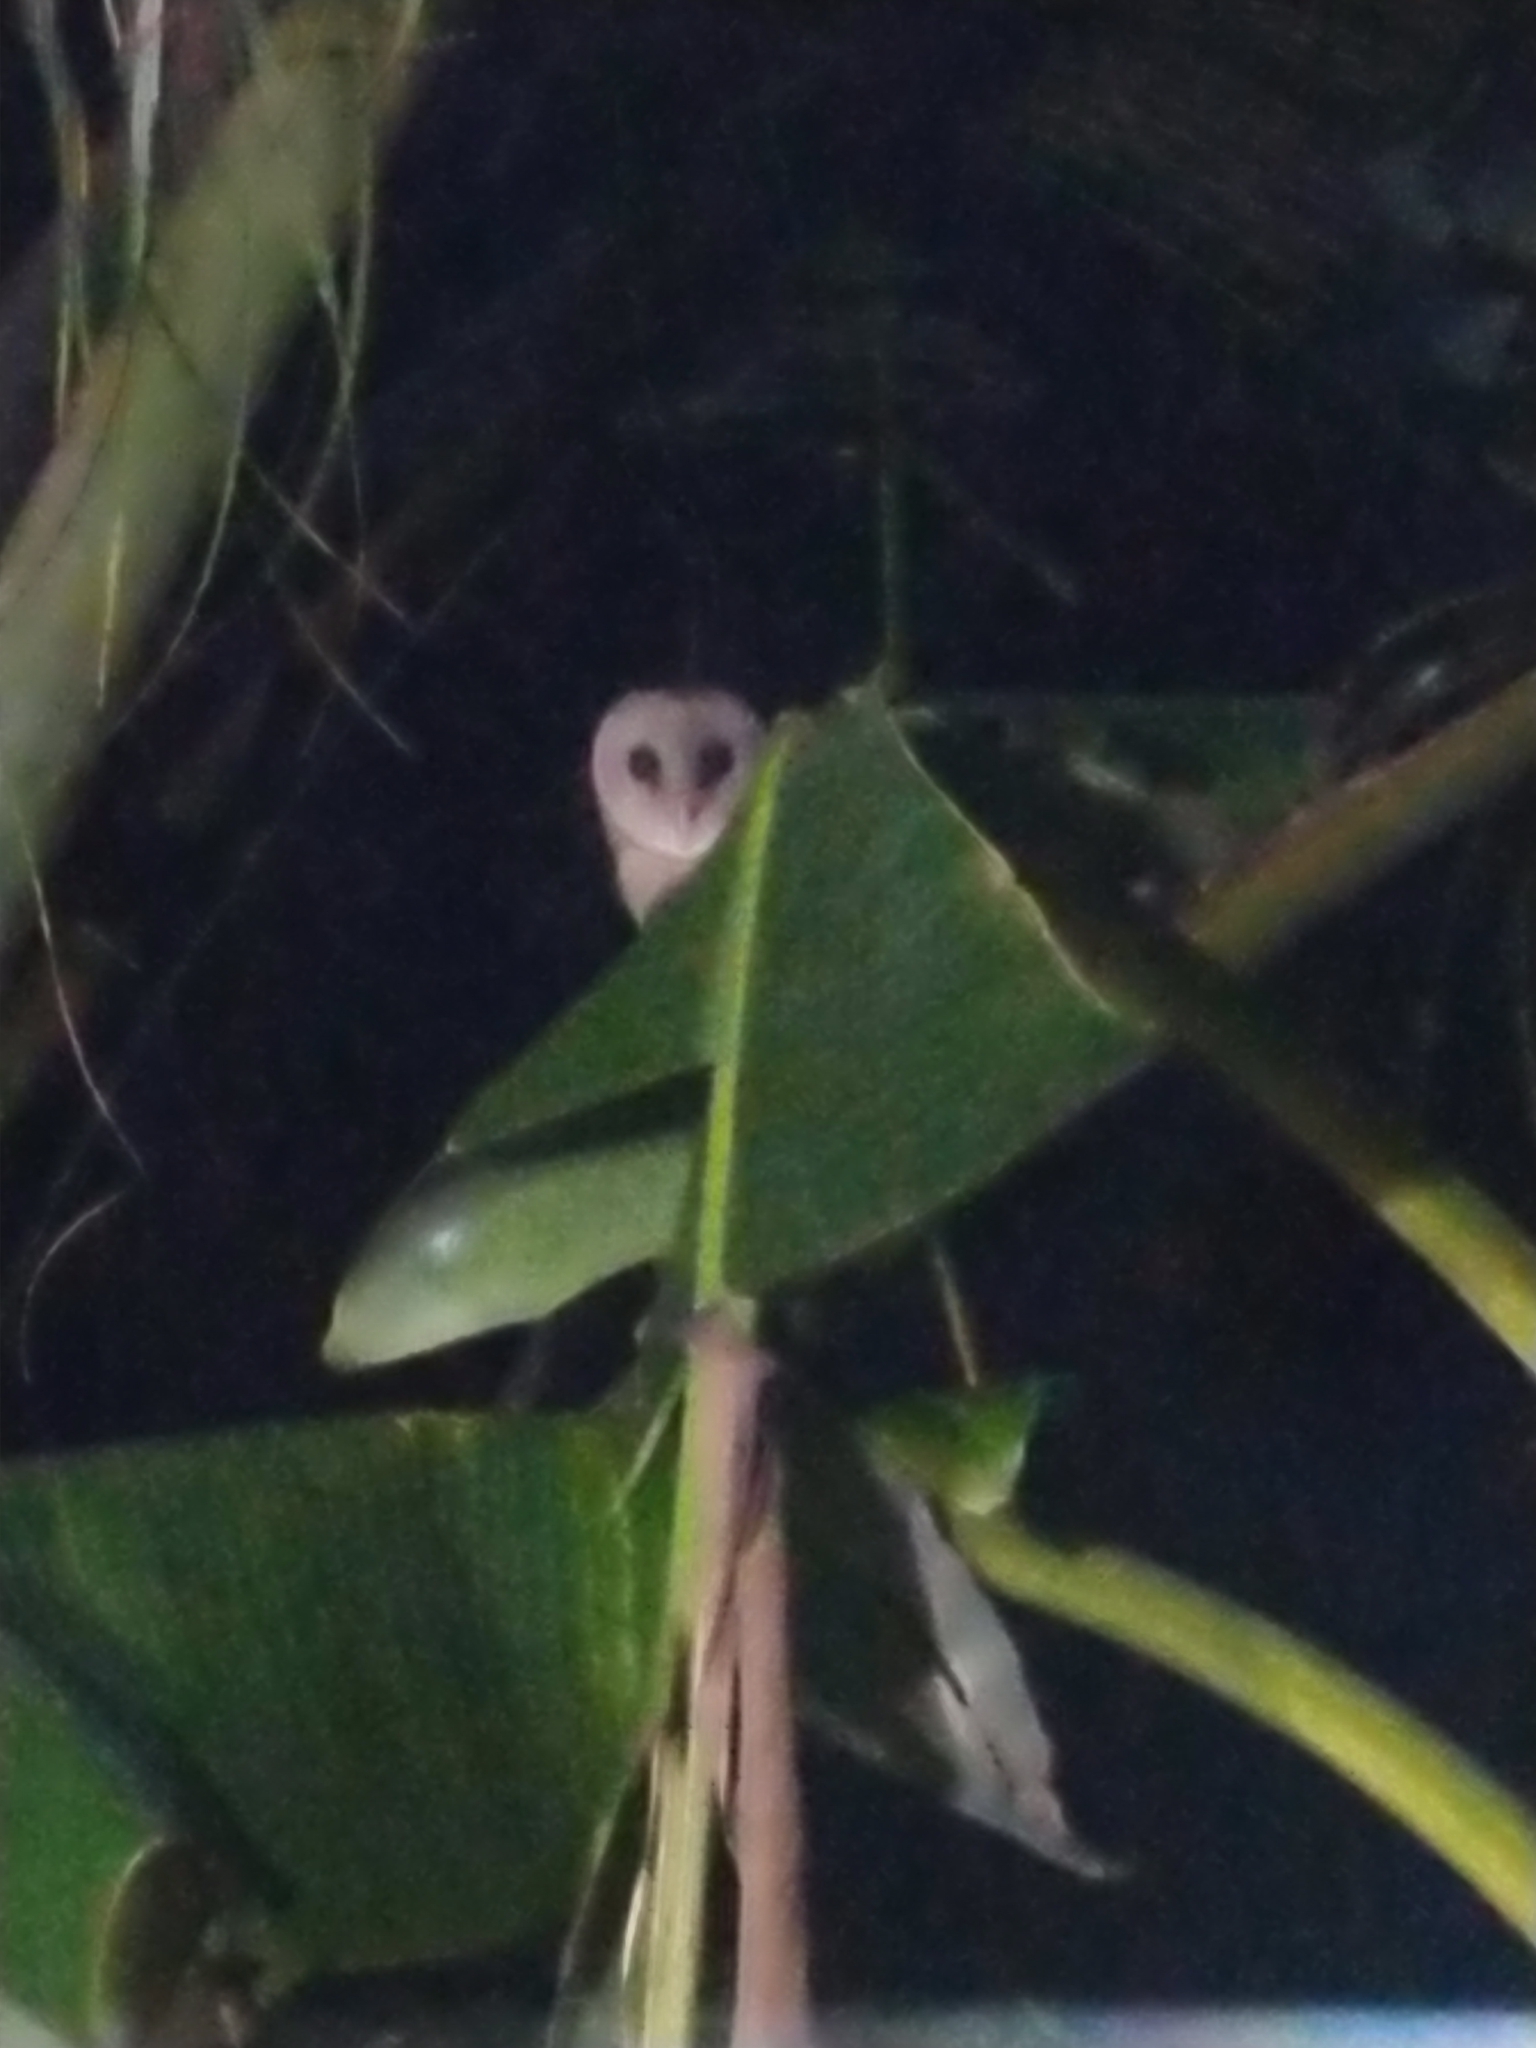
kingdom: Animalia
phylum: Chordata
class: Aves
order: Strigiformes
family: Tytonidae
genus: Tyto
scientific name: Tyto alba
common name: Barn owl
